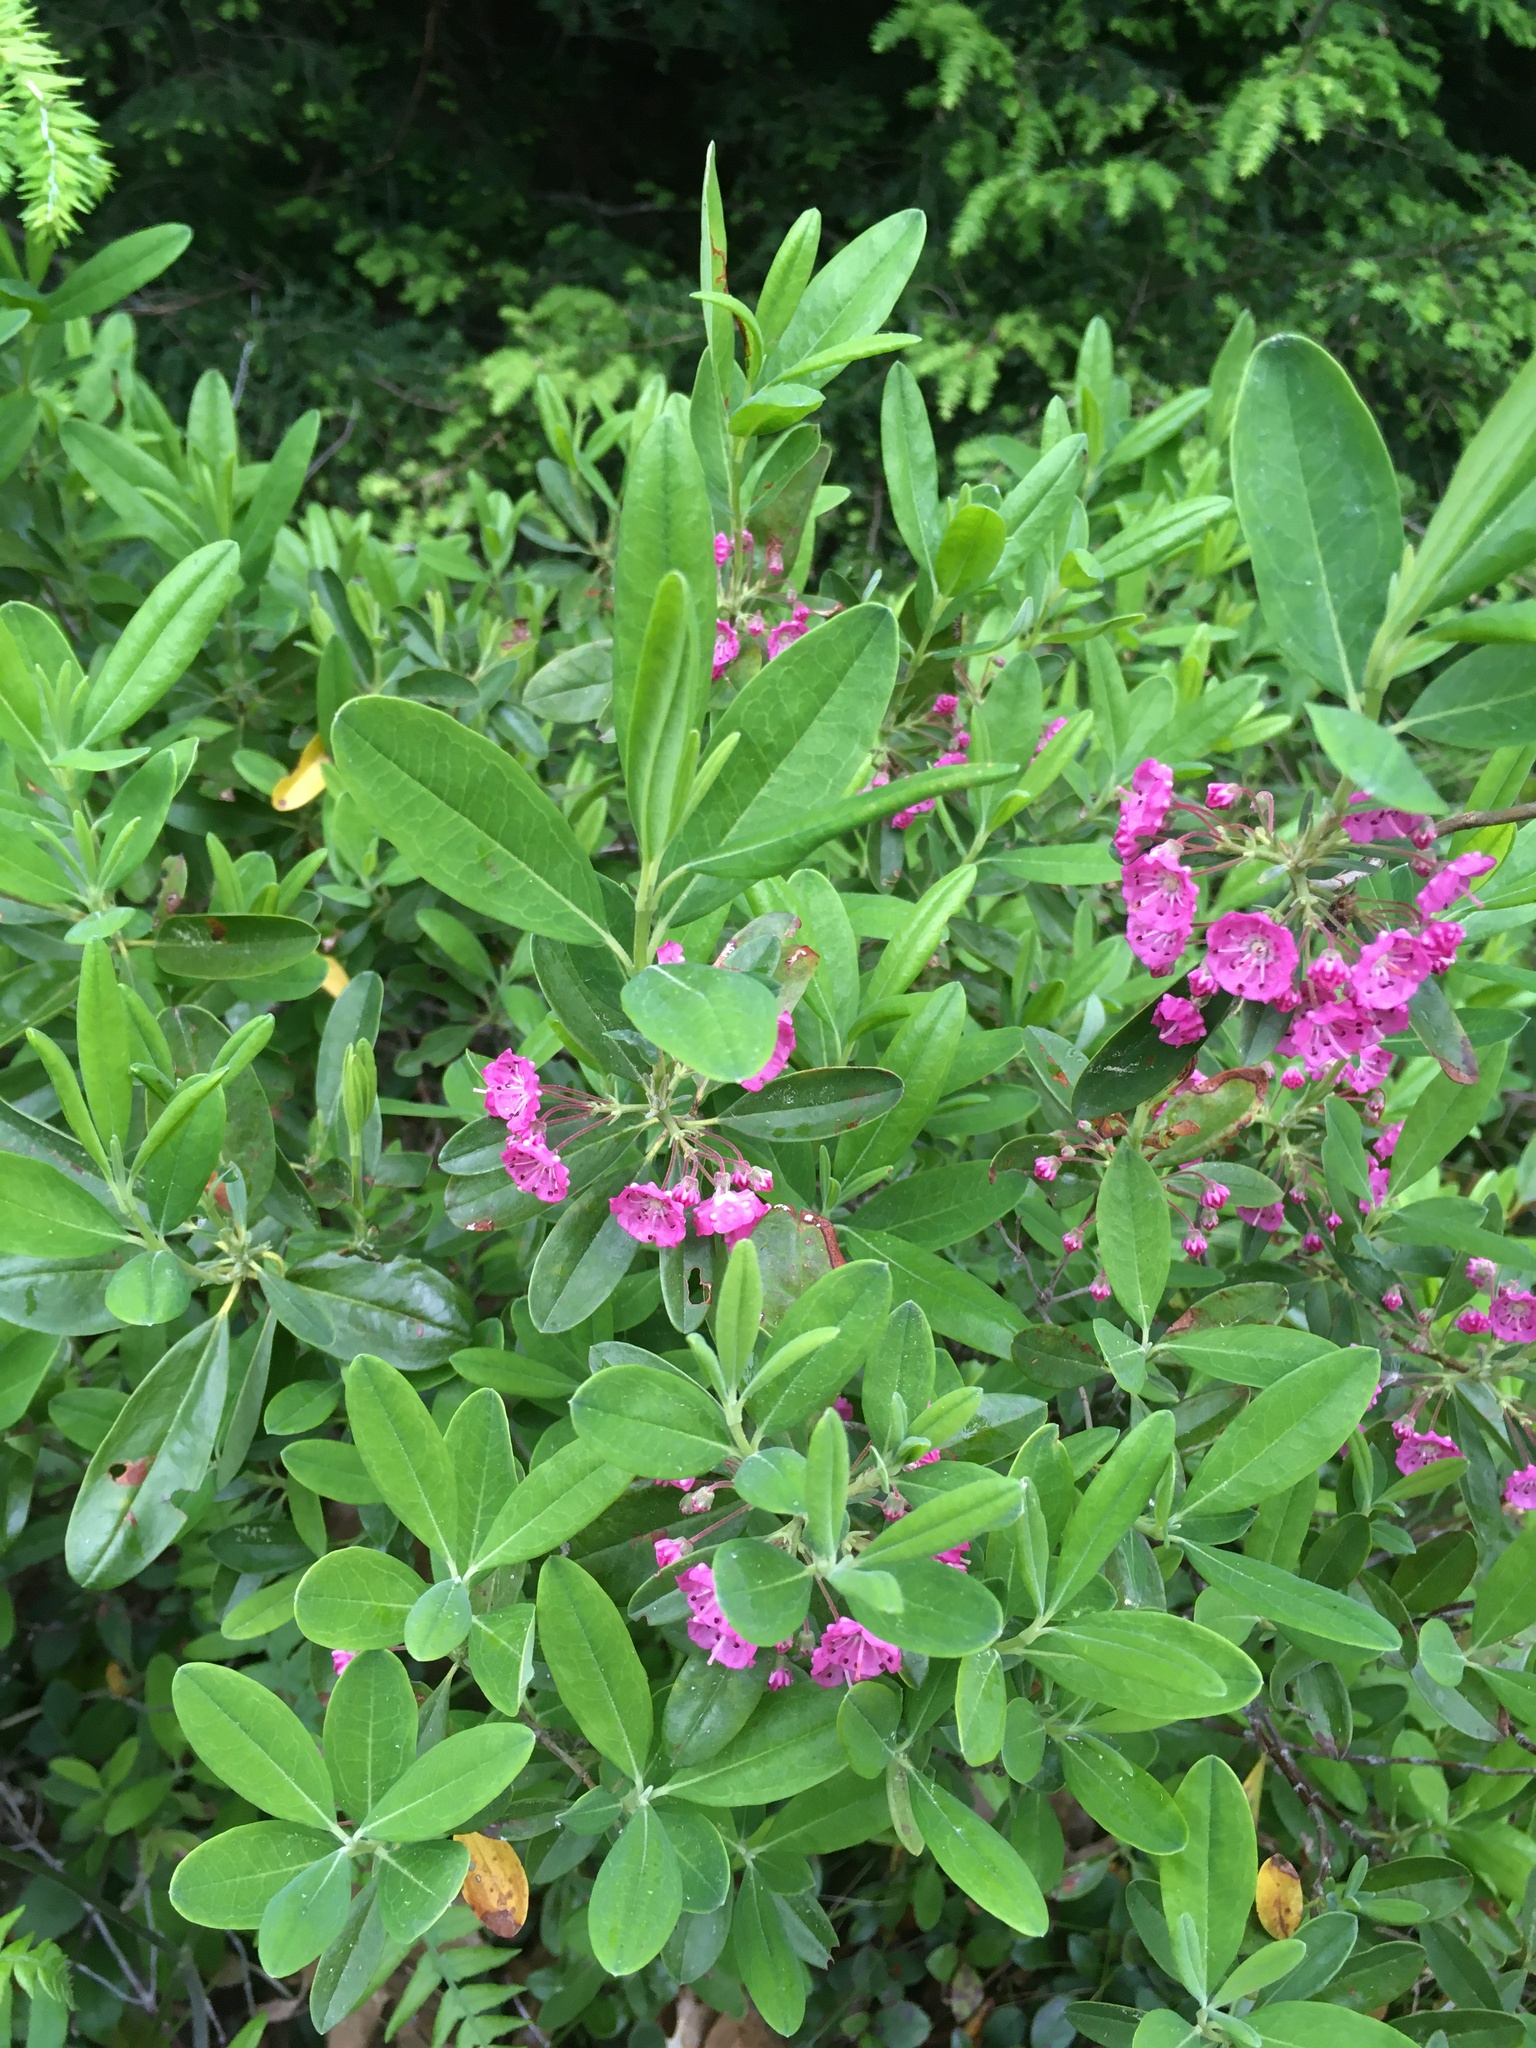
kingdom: Plantae
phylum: Tracheophyta
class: Magnoliopsida
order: Ericales
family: Ericaceae
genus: Kalmia
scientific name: Kalmia angustifolia
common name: Sheep-laurel
